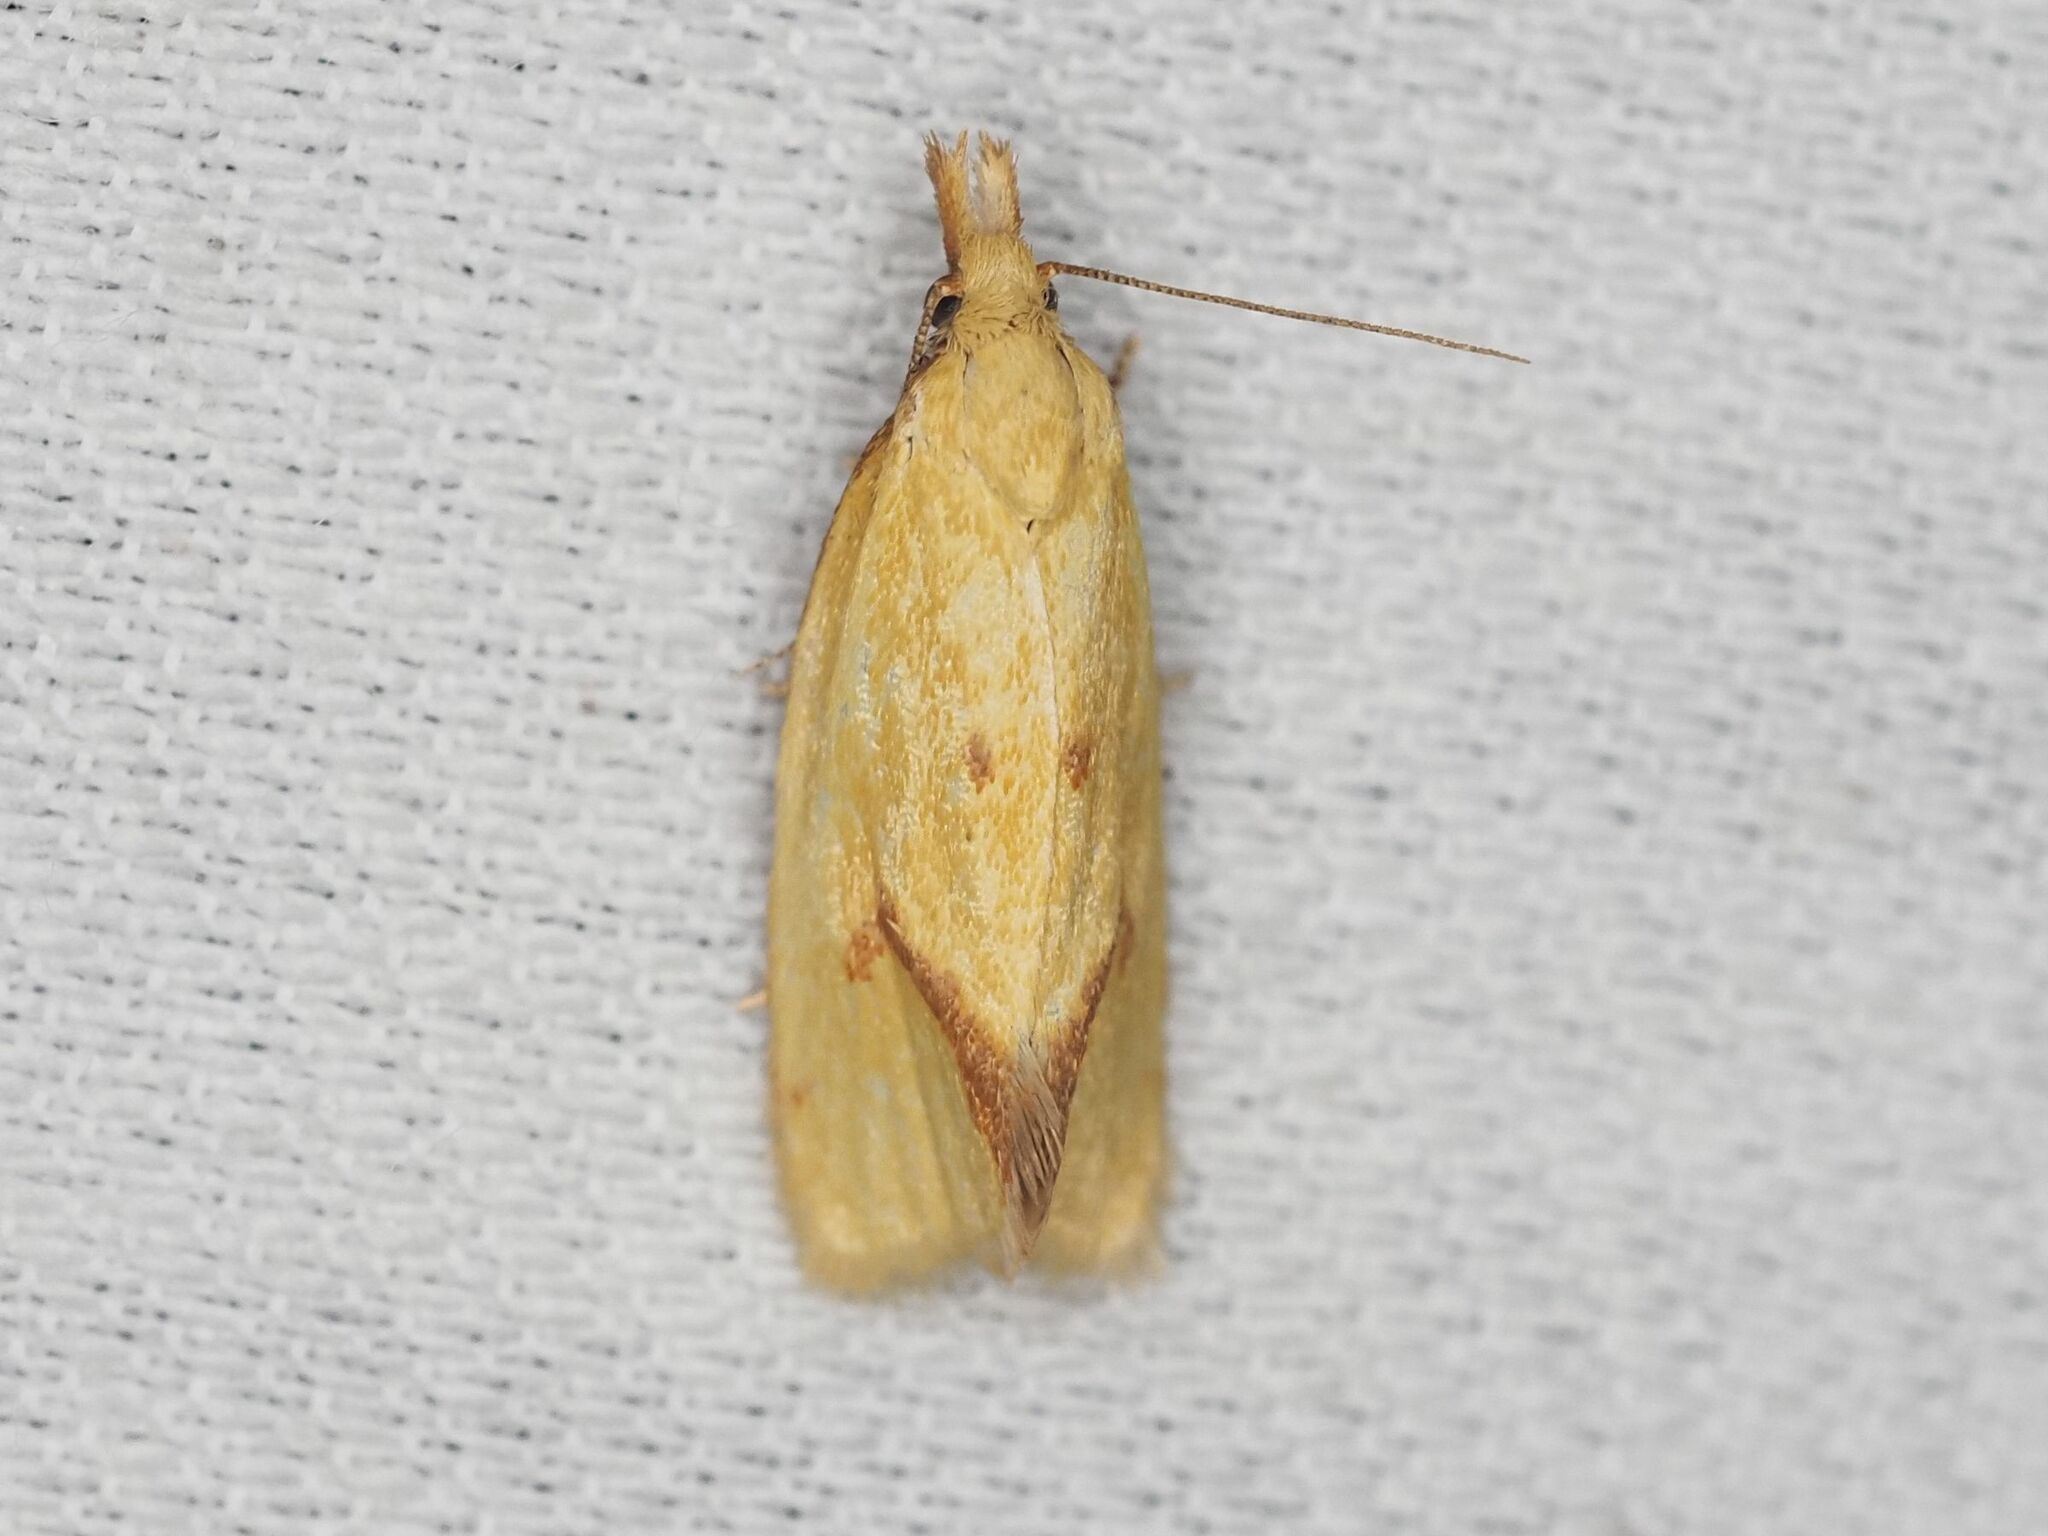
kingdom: Animalia
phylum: Arthropoda
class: Insecta
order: Lepidoptera
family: Tortricidae
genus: Agapeta
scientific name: Agapeta hamana
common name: Common yellow conch
